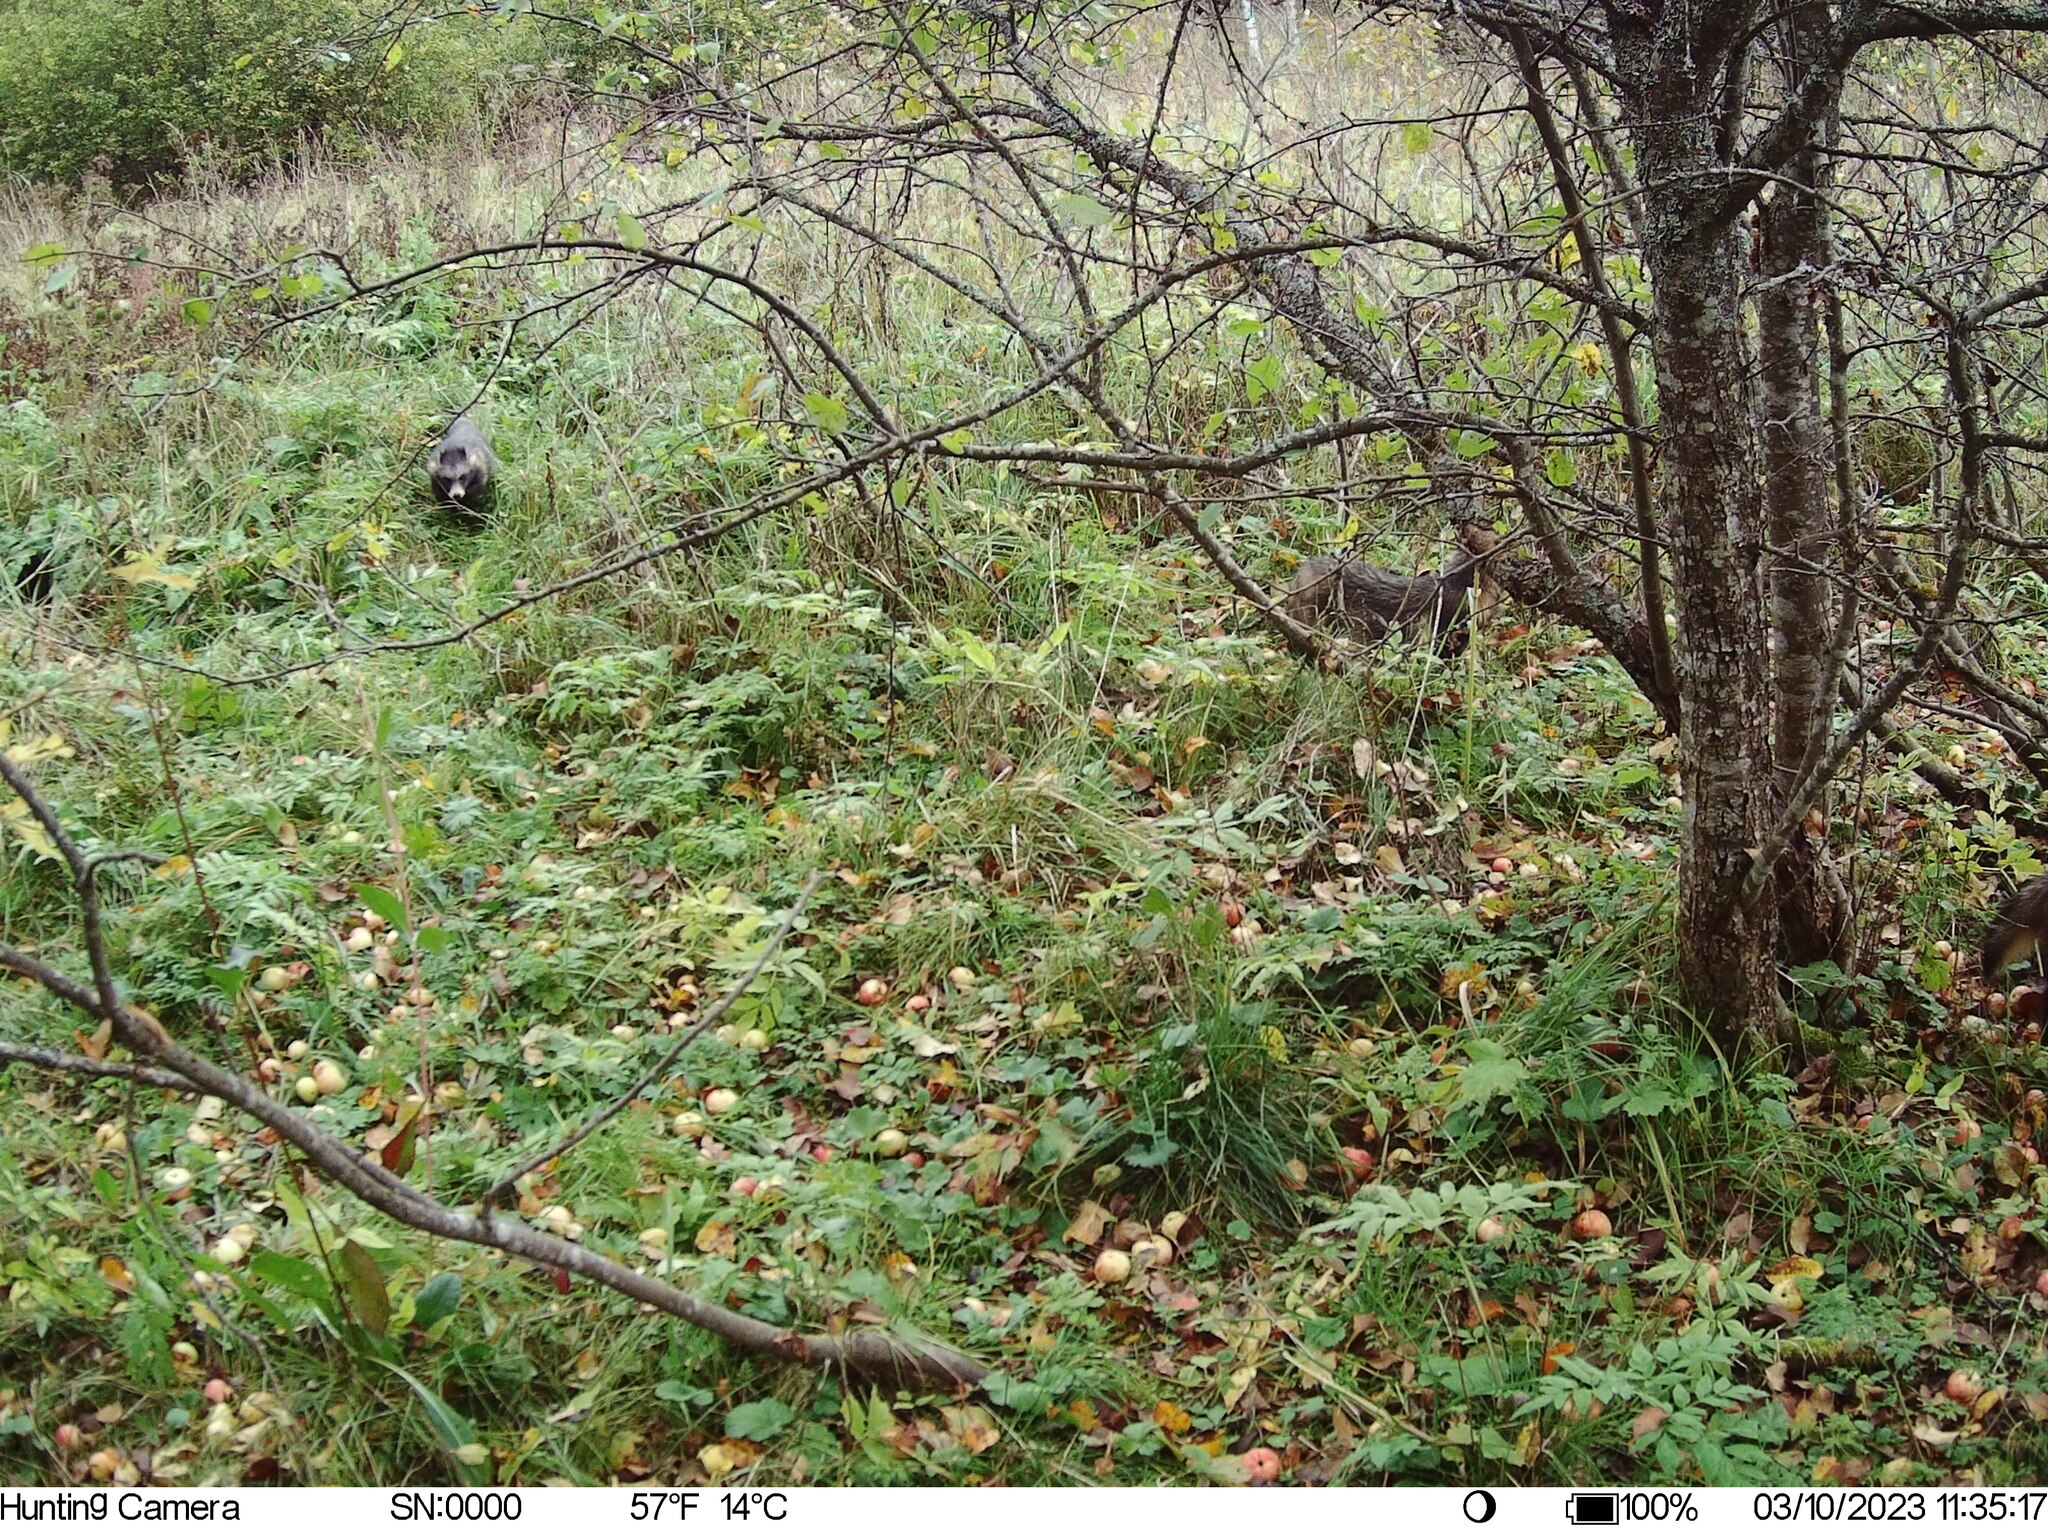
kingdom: Animalia
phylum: Chordata
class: Mammalia
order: Carnivora
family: Canidae
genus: Nyctereutes
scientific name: Nyctereutes procyonoides
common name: Raccoon dog
